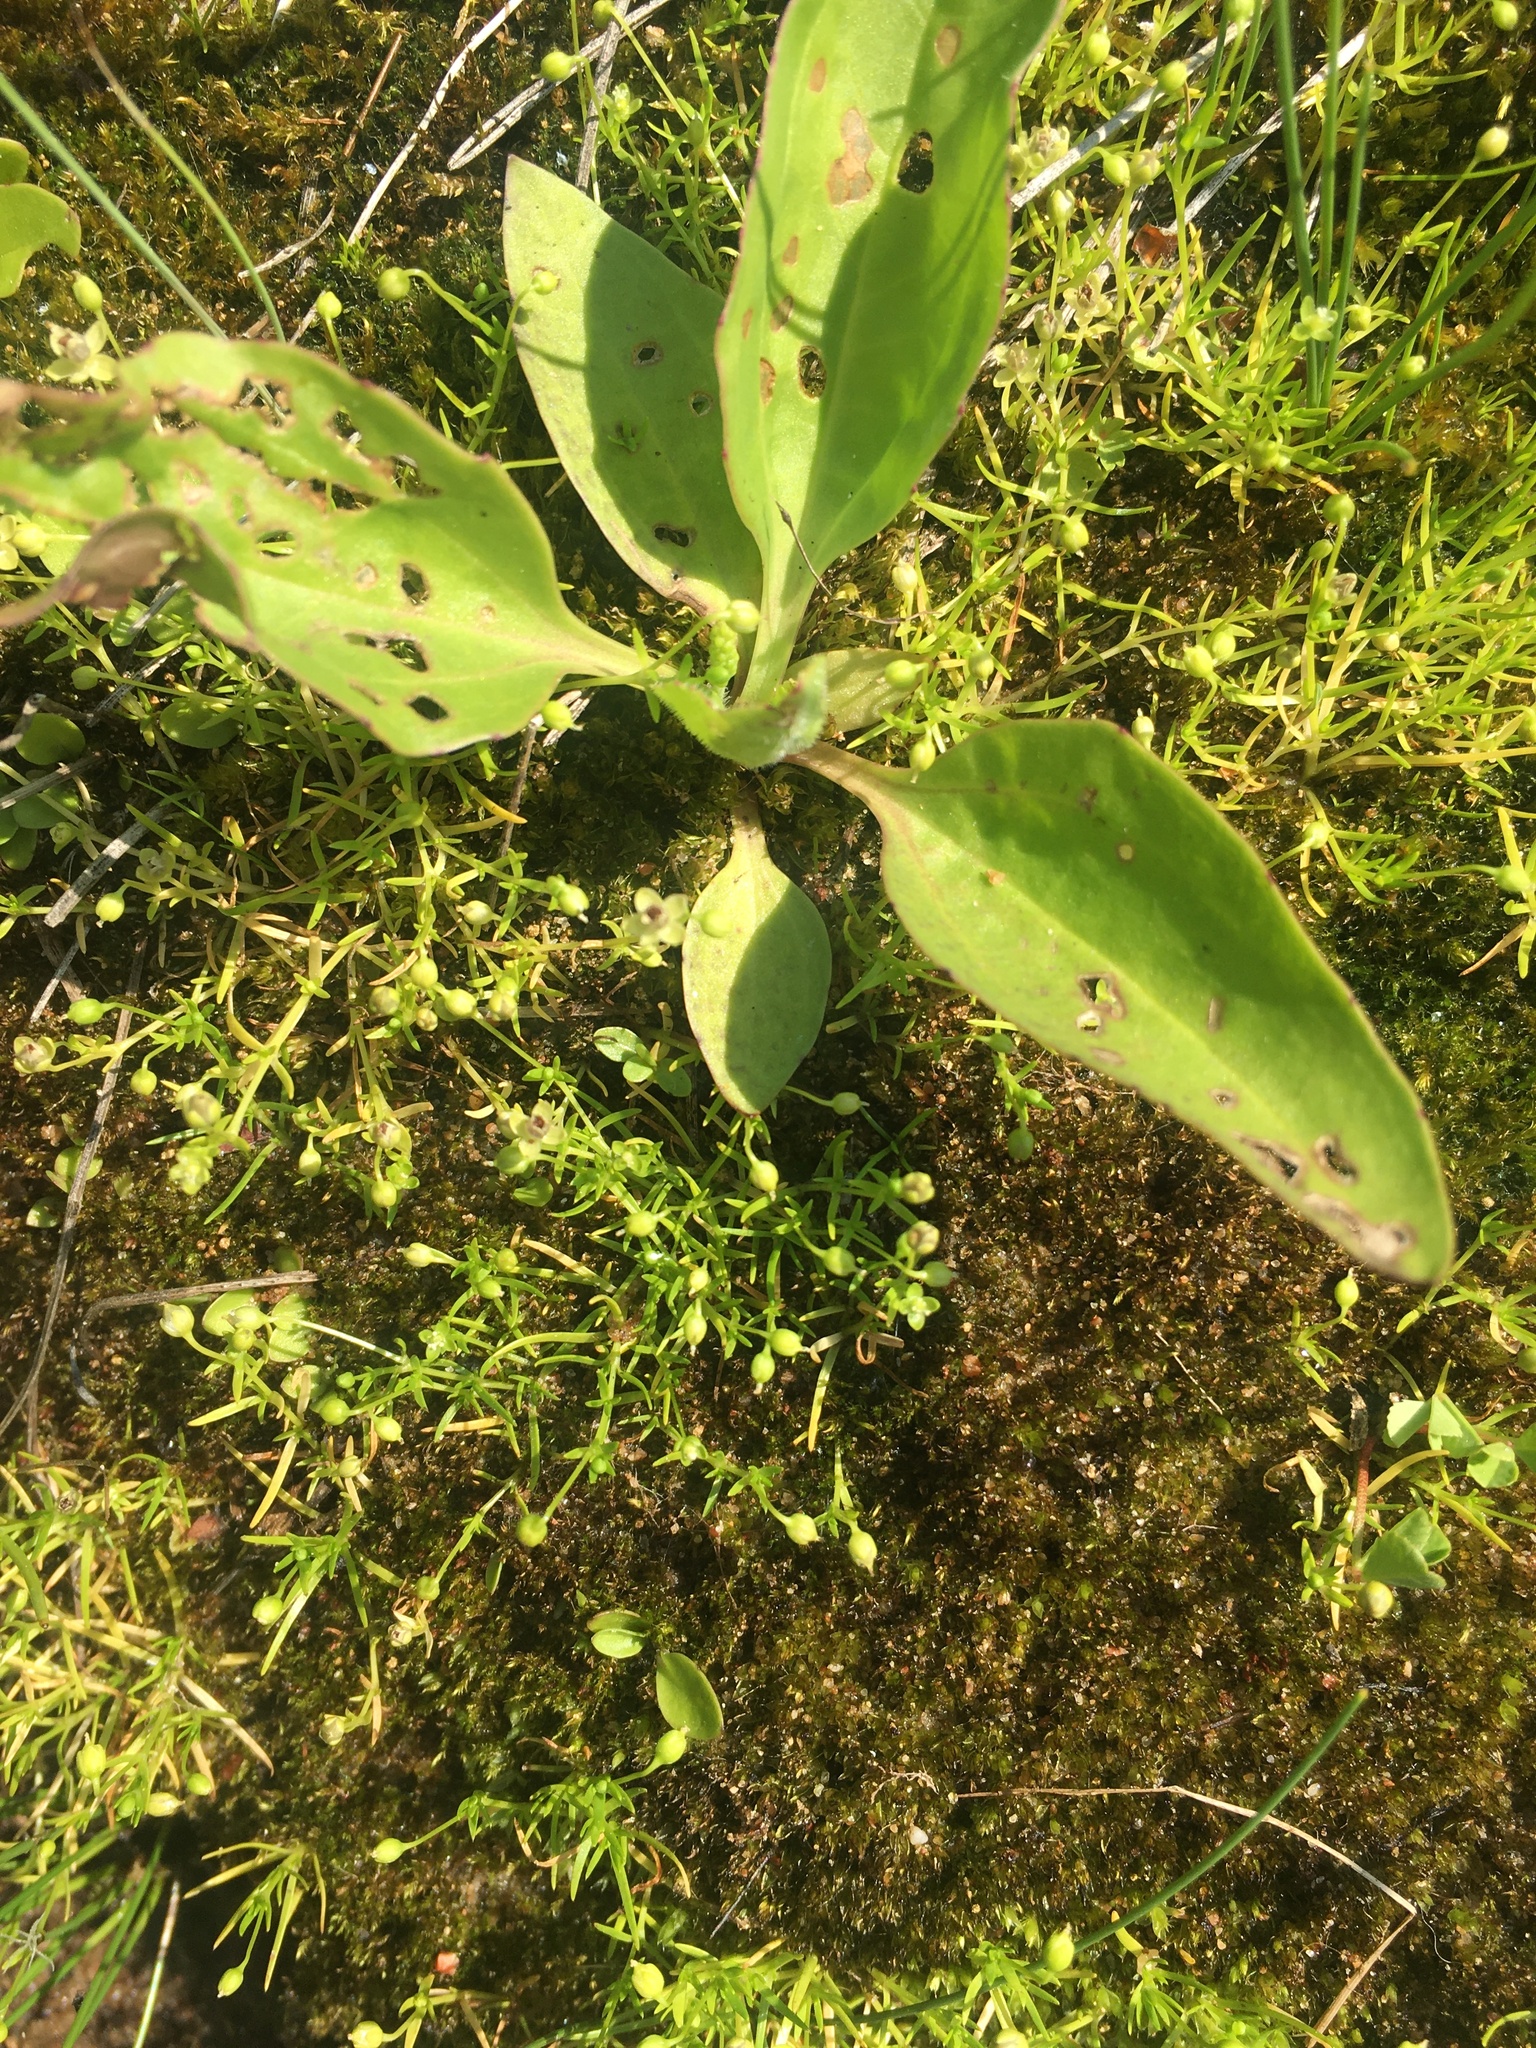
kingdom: Plantae
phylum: Tracheophyta
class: Magnoliopsida
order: Lamiales
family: Plantaginaceae
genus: Plantago
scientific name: Plantago uliginosa
